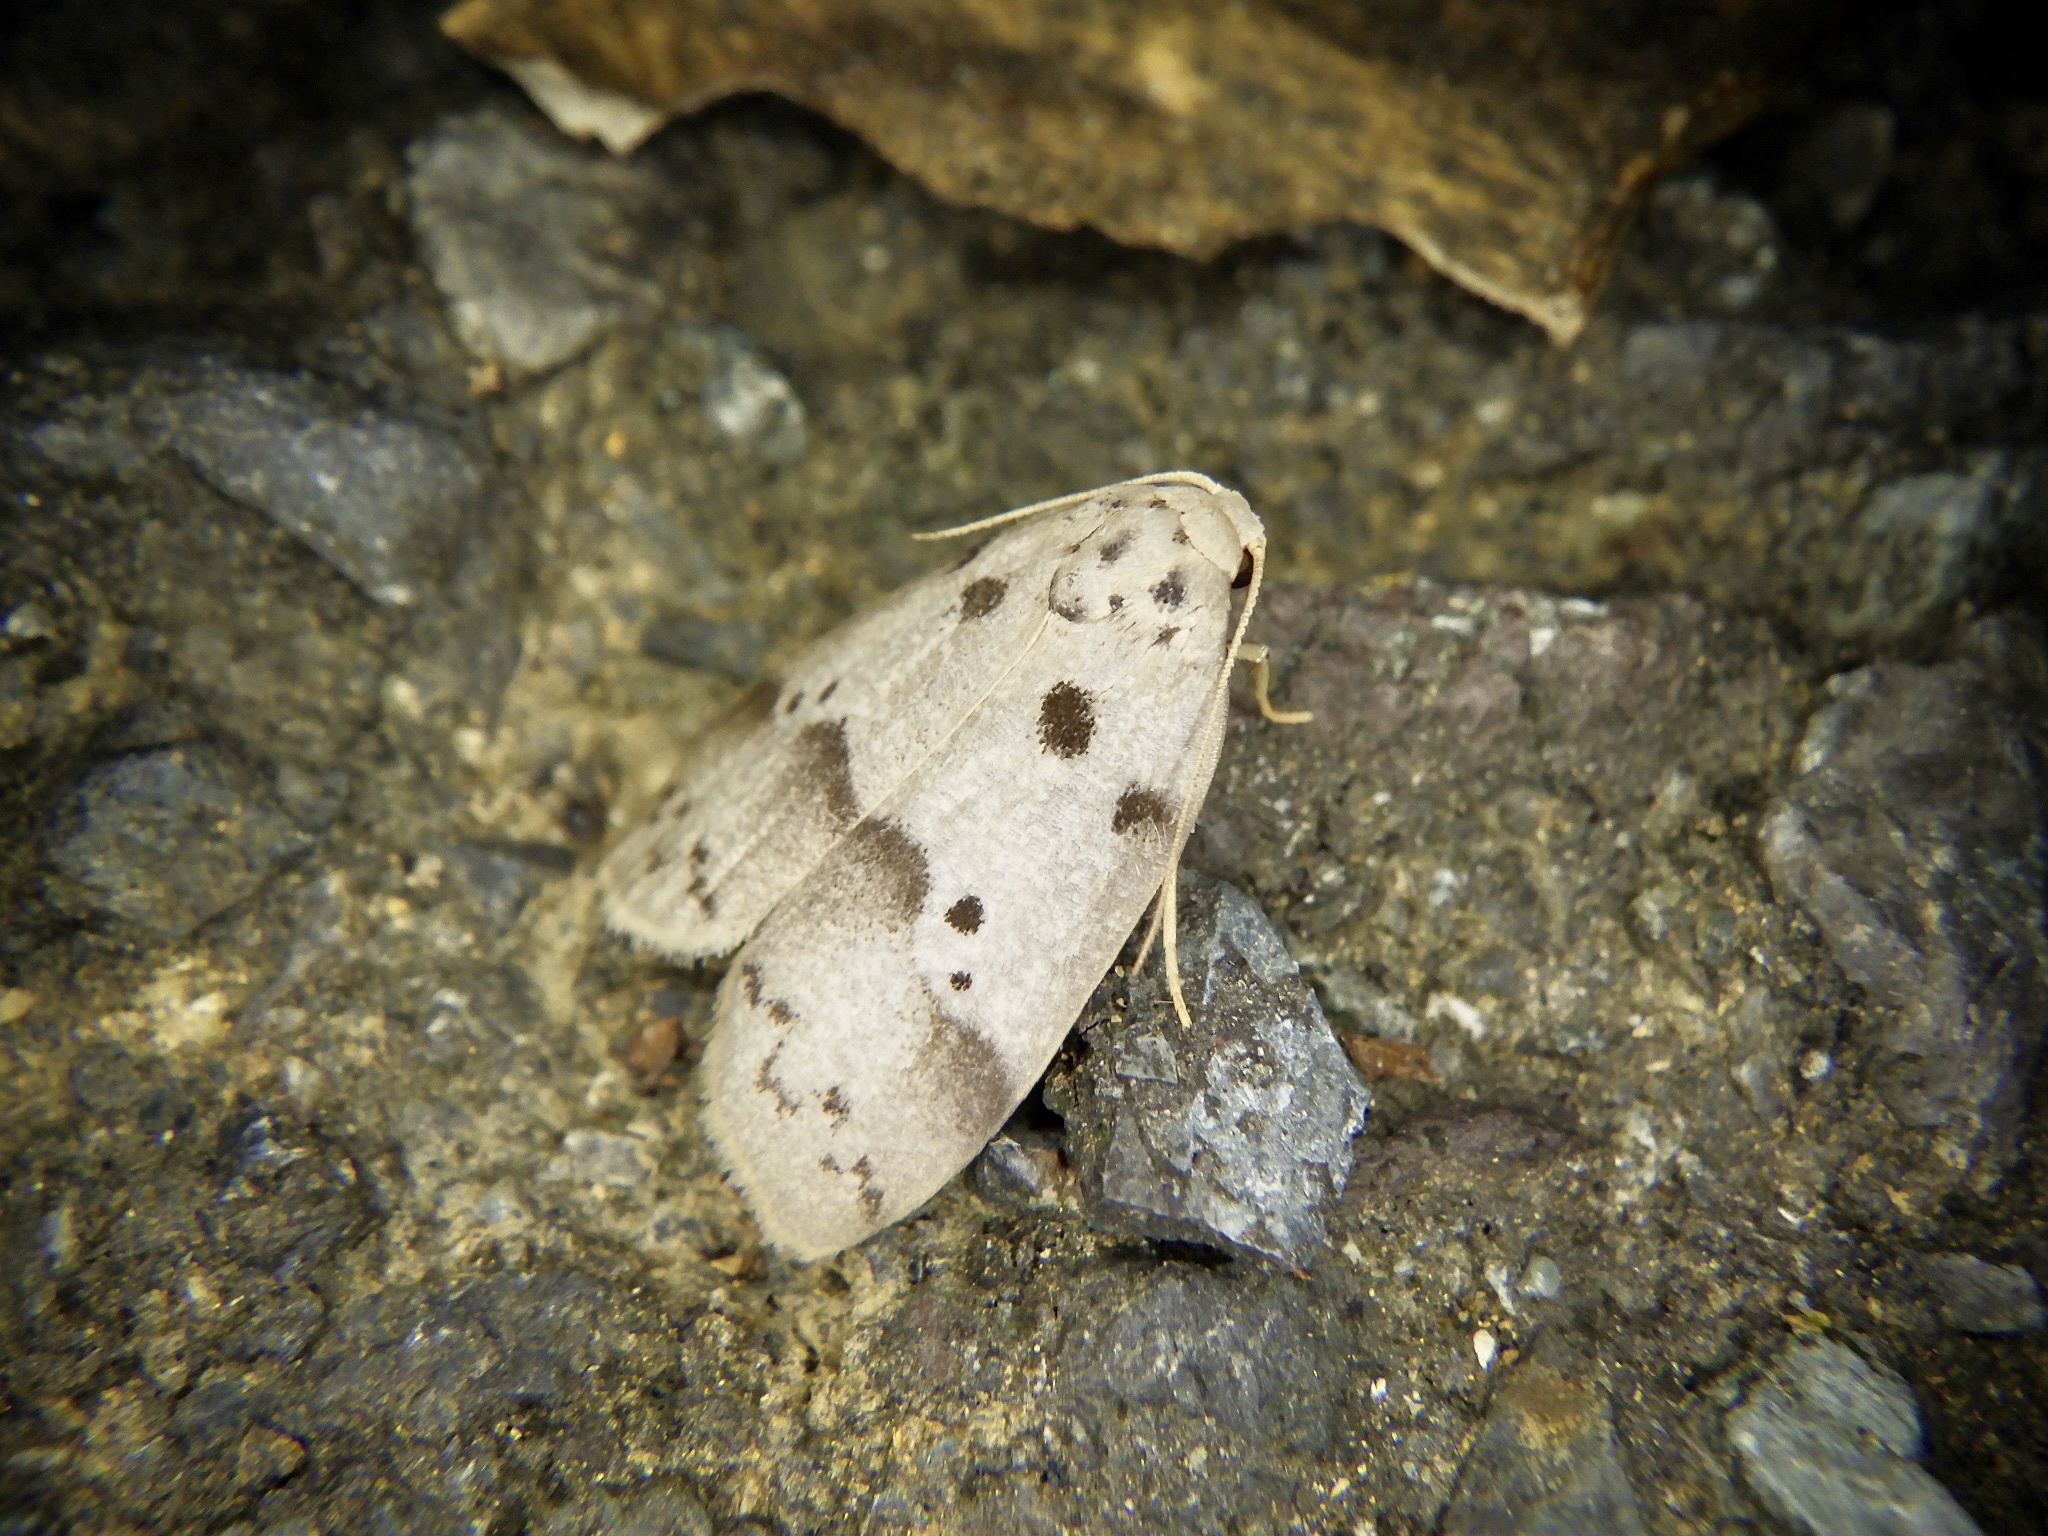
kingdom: Animalia
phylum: Arthropoda
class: Insecta
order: Lepidoptera
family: Erebidae
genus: Eugoa
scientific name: Eugoa grisea
